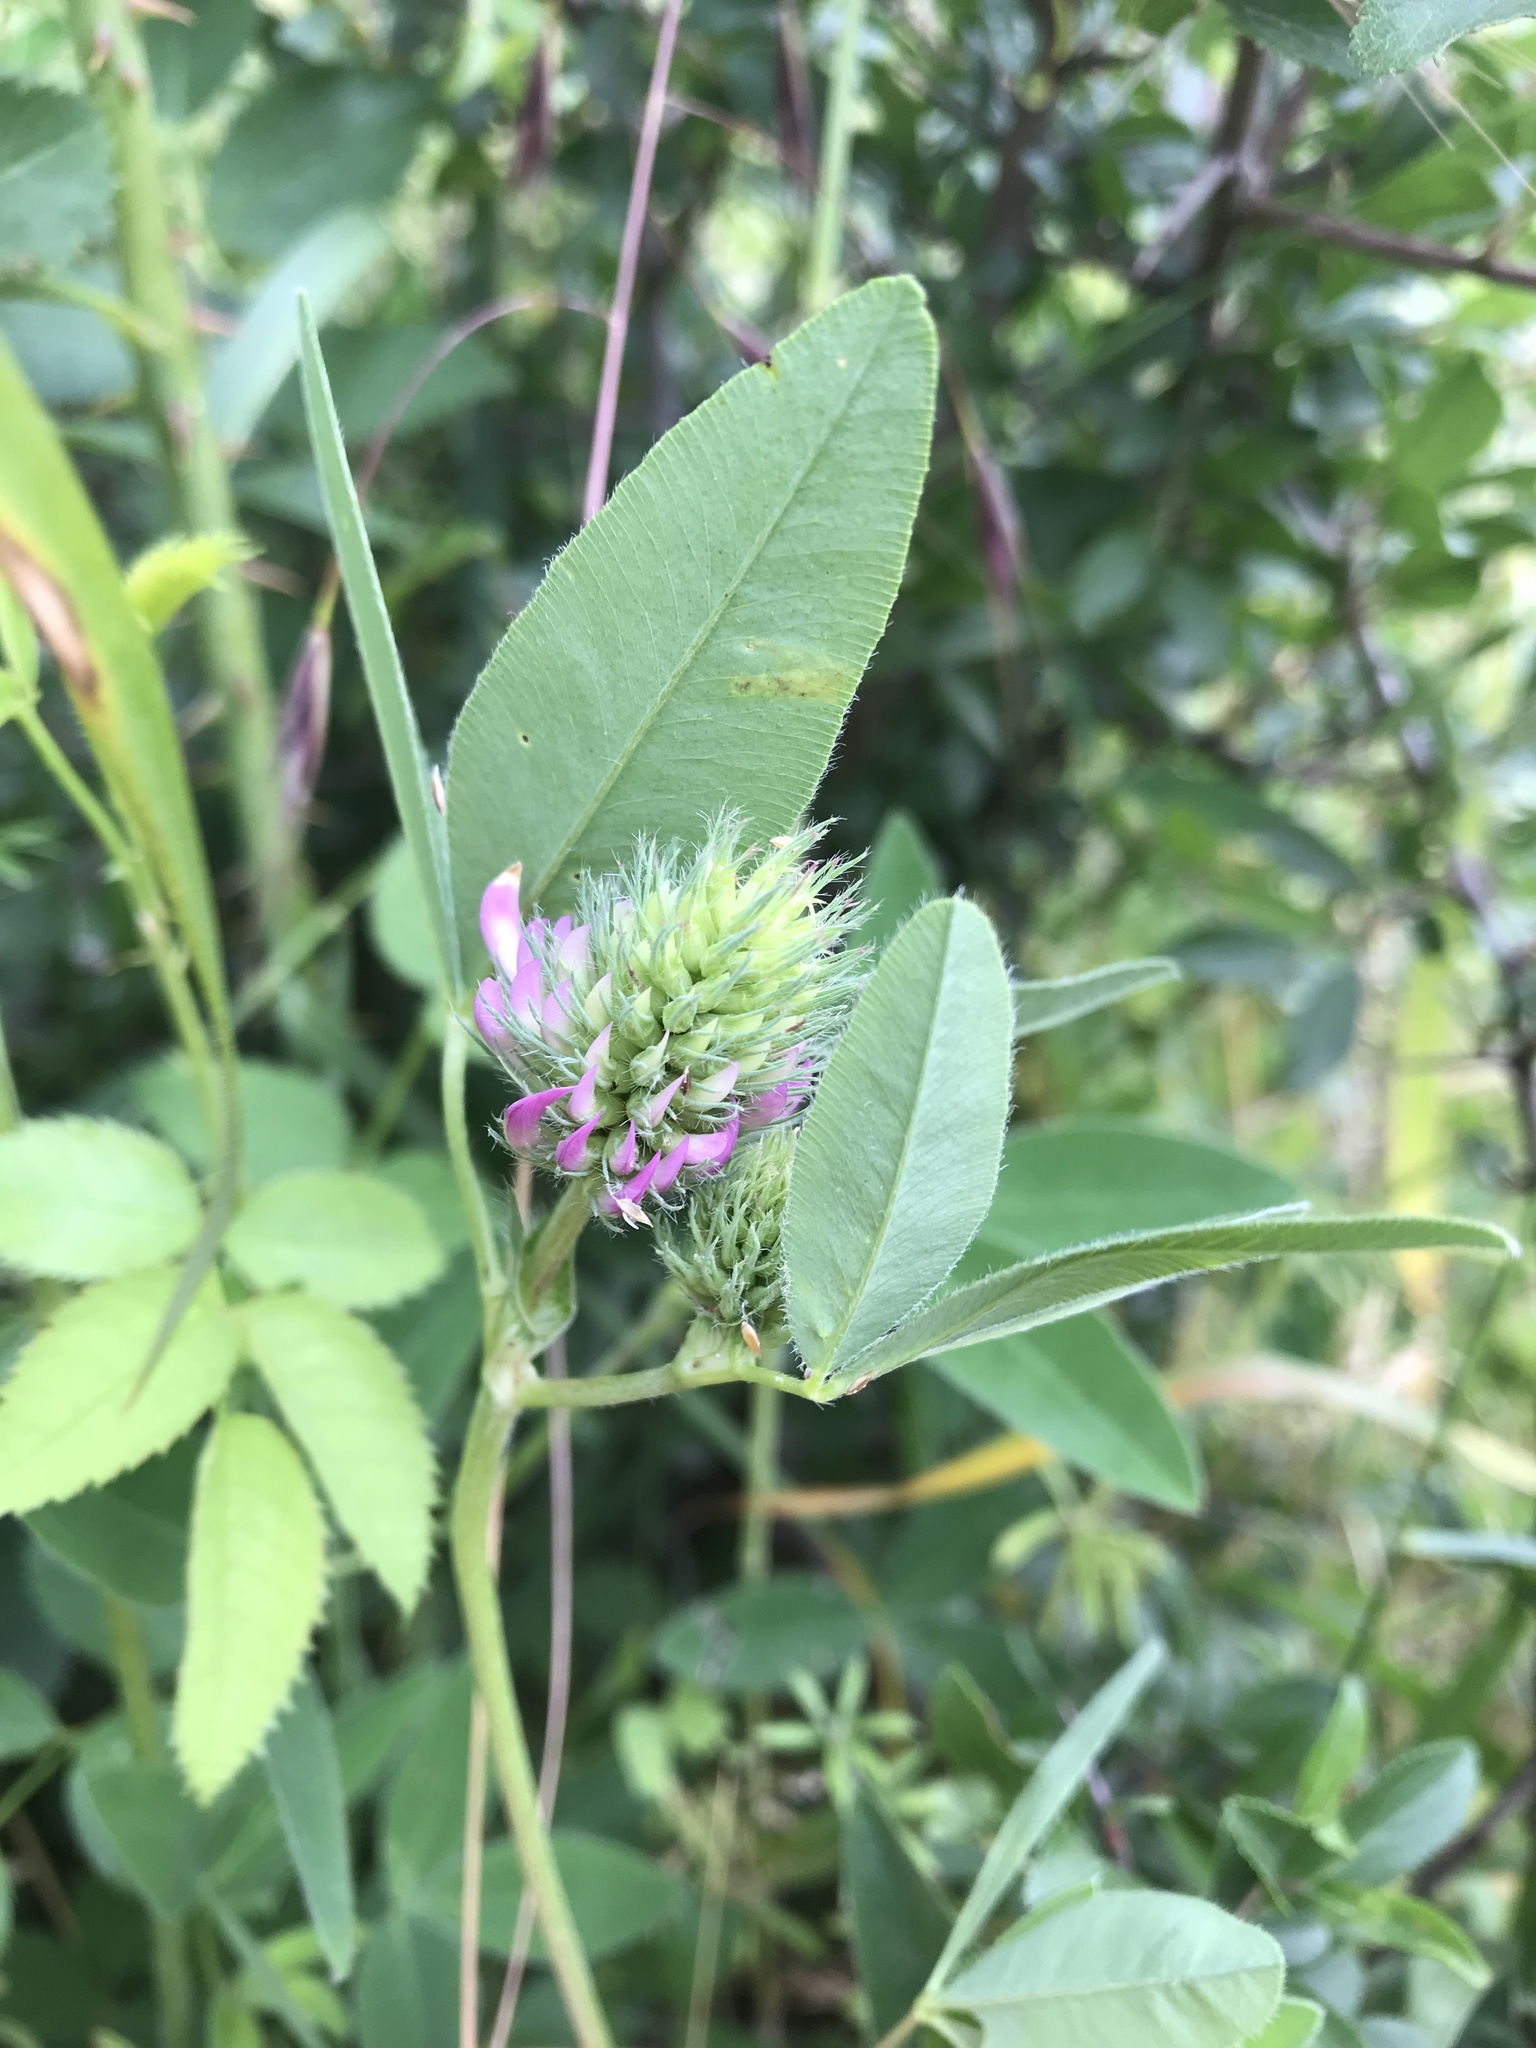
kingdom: Plantae
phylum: Tracheophyta
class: Magnoliopsida
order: Fabales
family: Fabaceae
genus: Trifolium
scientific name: Trifolium medium
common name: Zigzag clover
